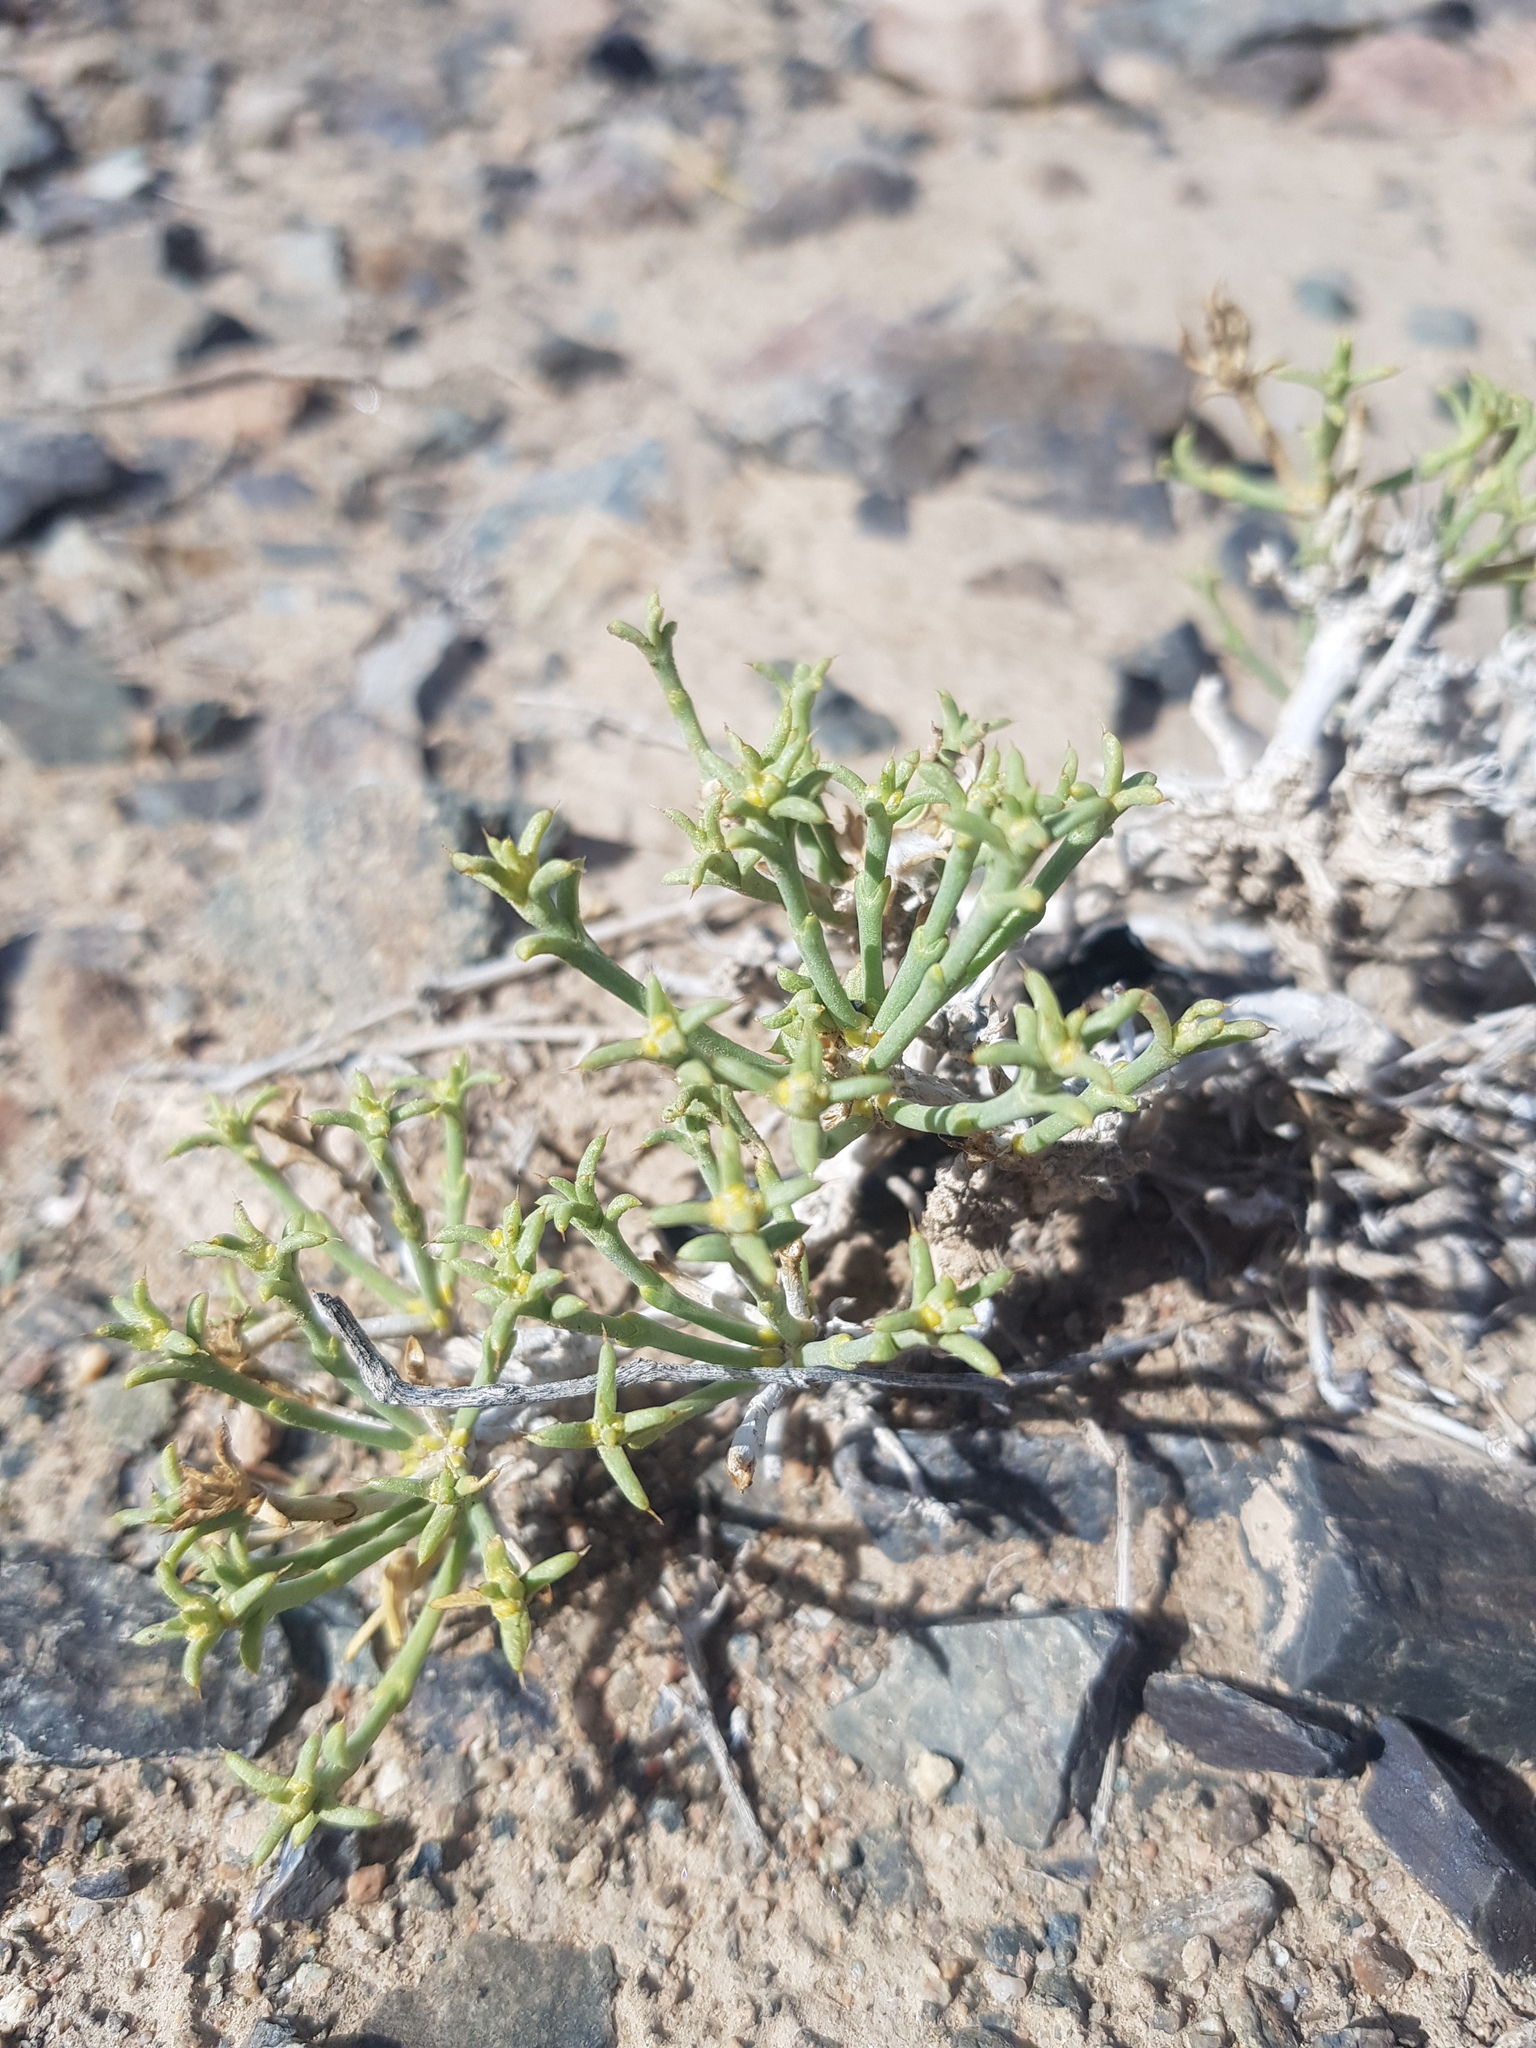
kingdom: Plantae
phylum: Tracheophyta
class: Magnoliopsida
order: Caryophyllales
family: Amaranthaceae
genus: Anabasis
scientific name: Anabasis brevifolia
